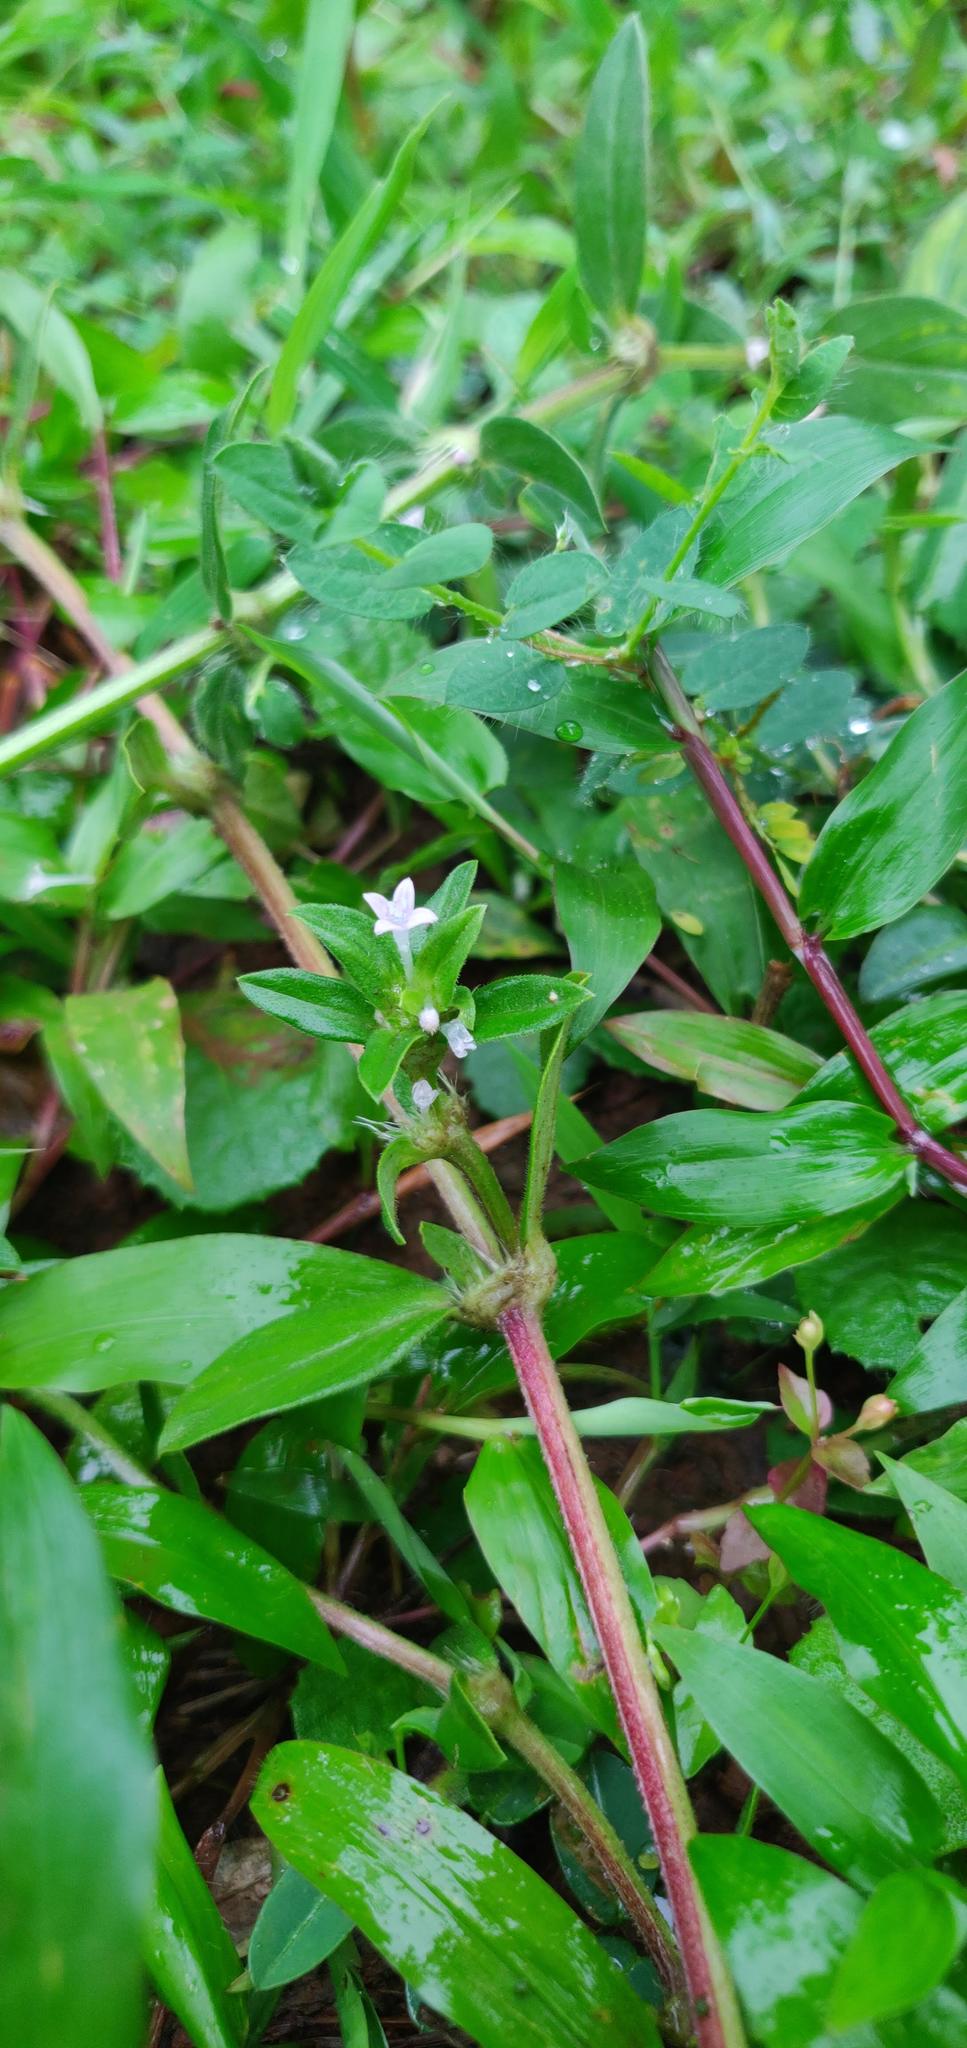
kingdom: Plantae
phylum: Tracheophyta
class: Magnoliopsida
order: Gentianales
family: Rubiaceae
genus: Spermacoce
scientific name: Spermacoce articularis
